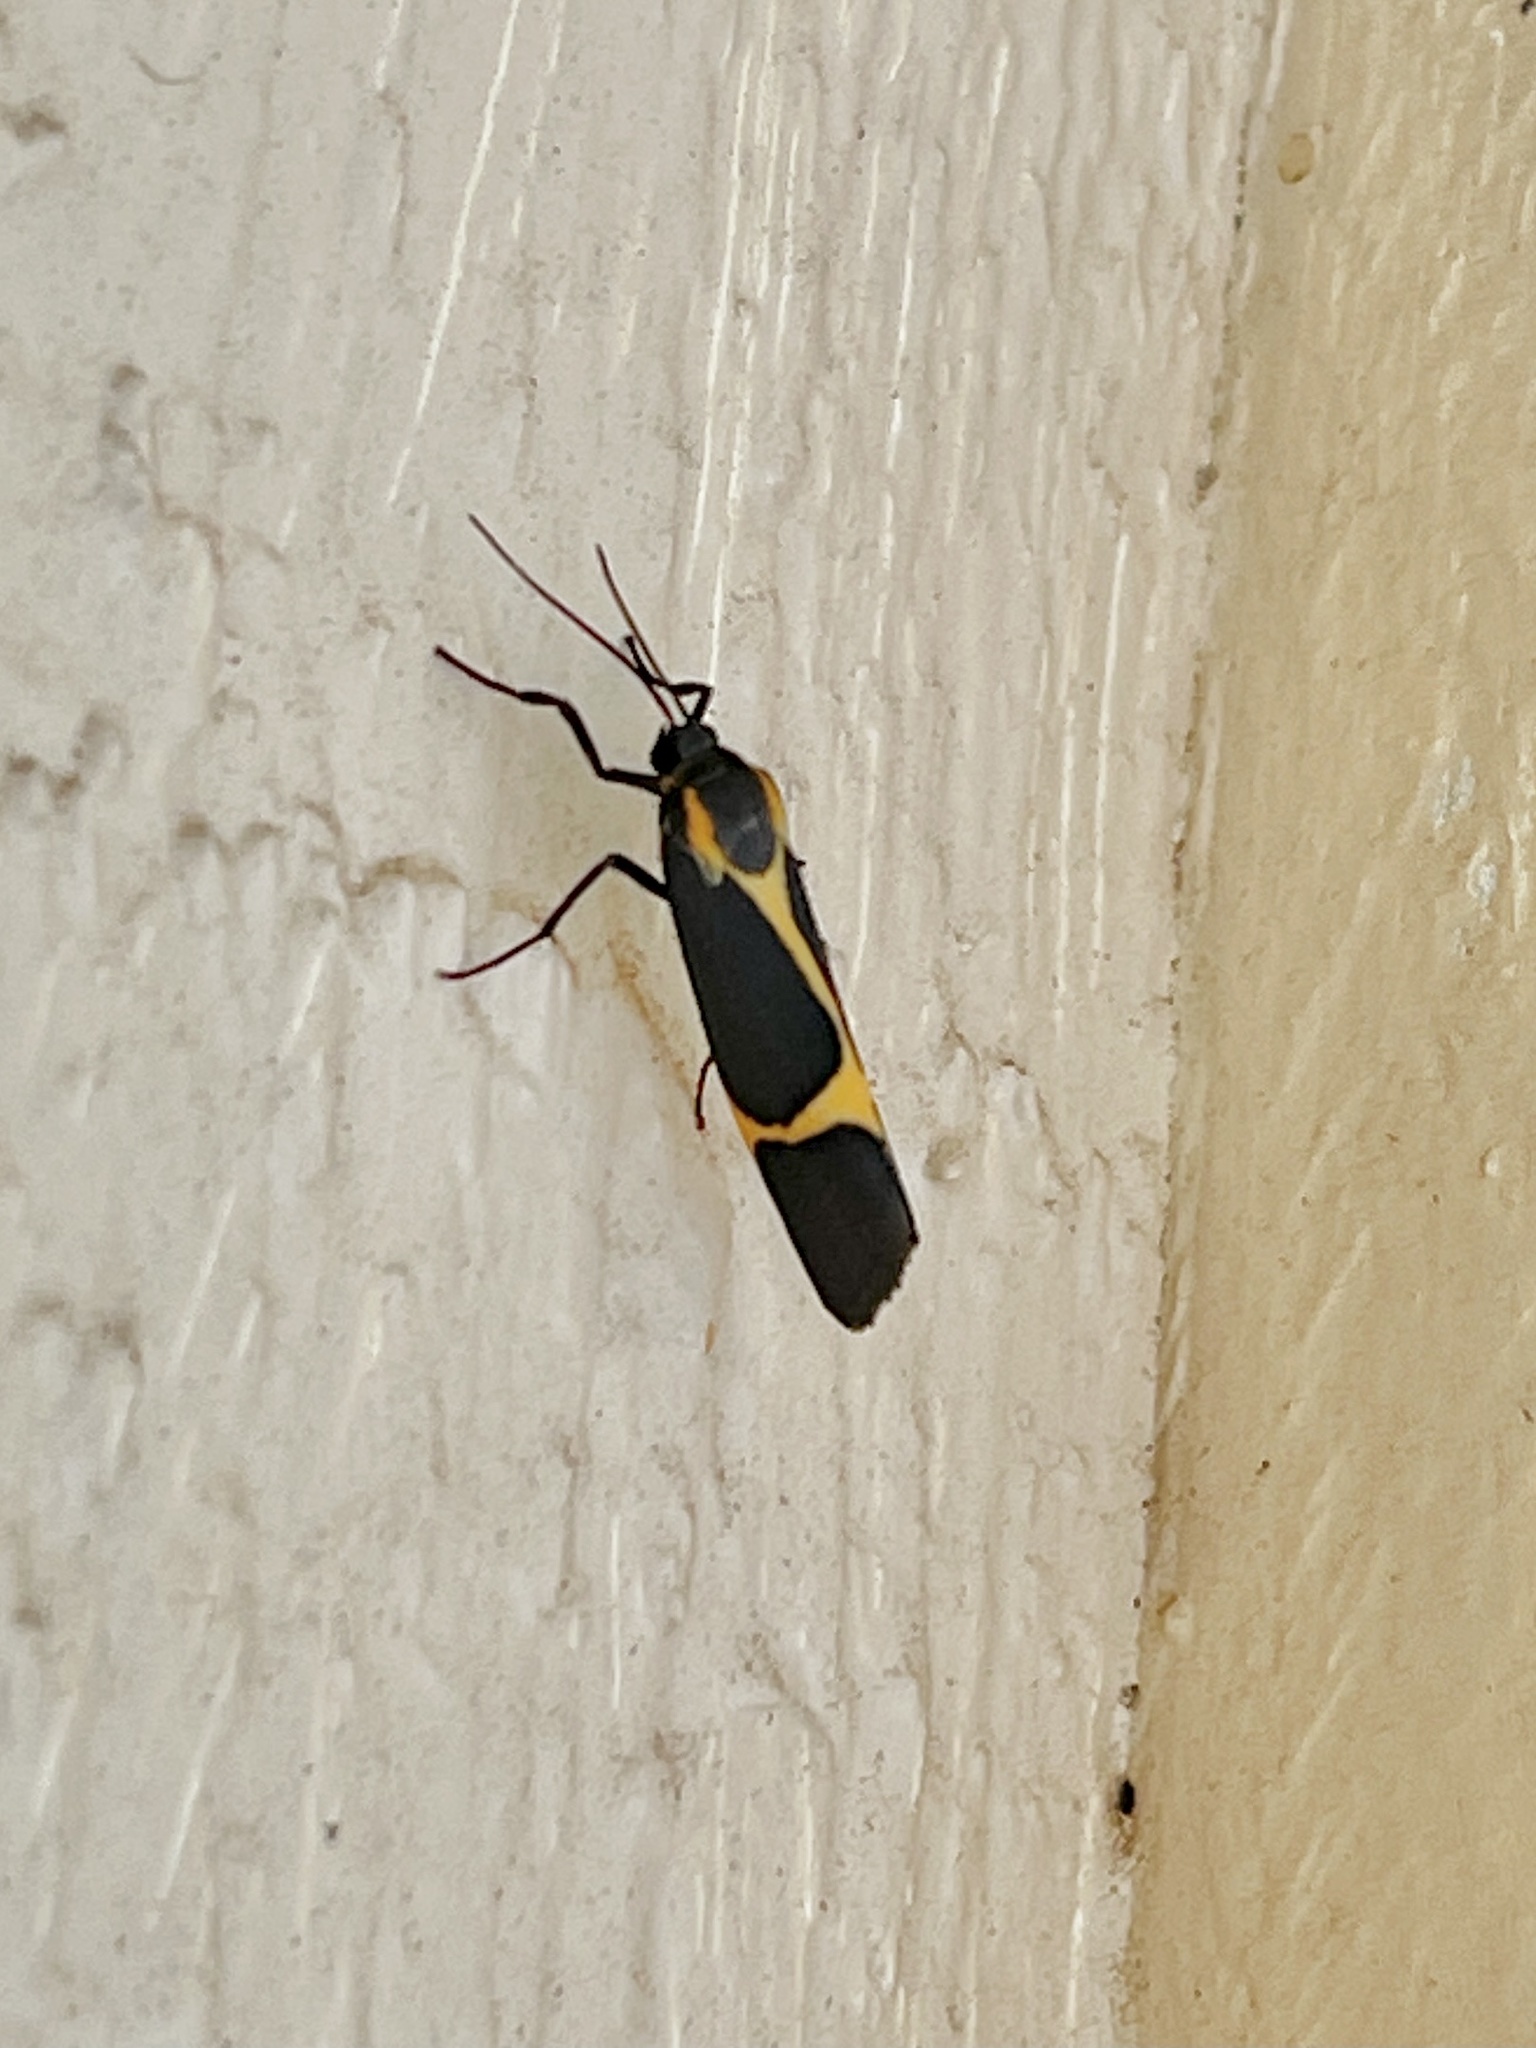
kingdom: Animalia
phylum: Arthropoda
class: Insecta
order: Lepidoptera
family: Erebidae
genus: Cisthene
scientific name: Cisthene barnesii
